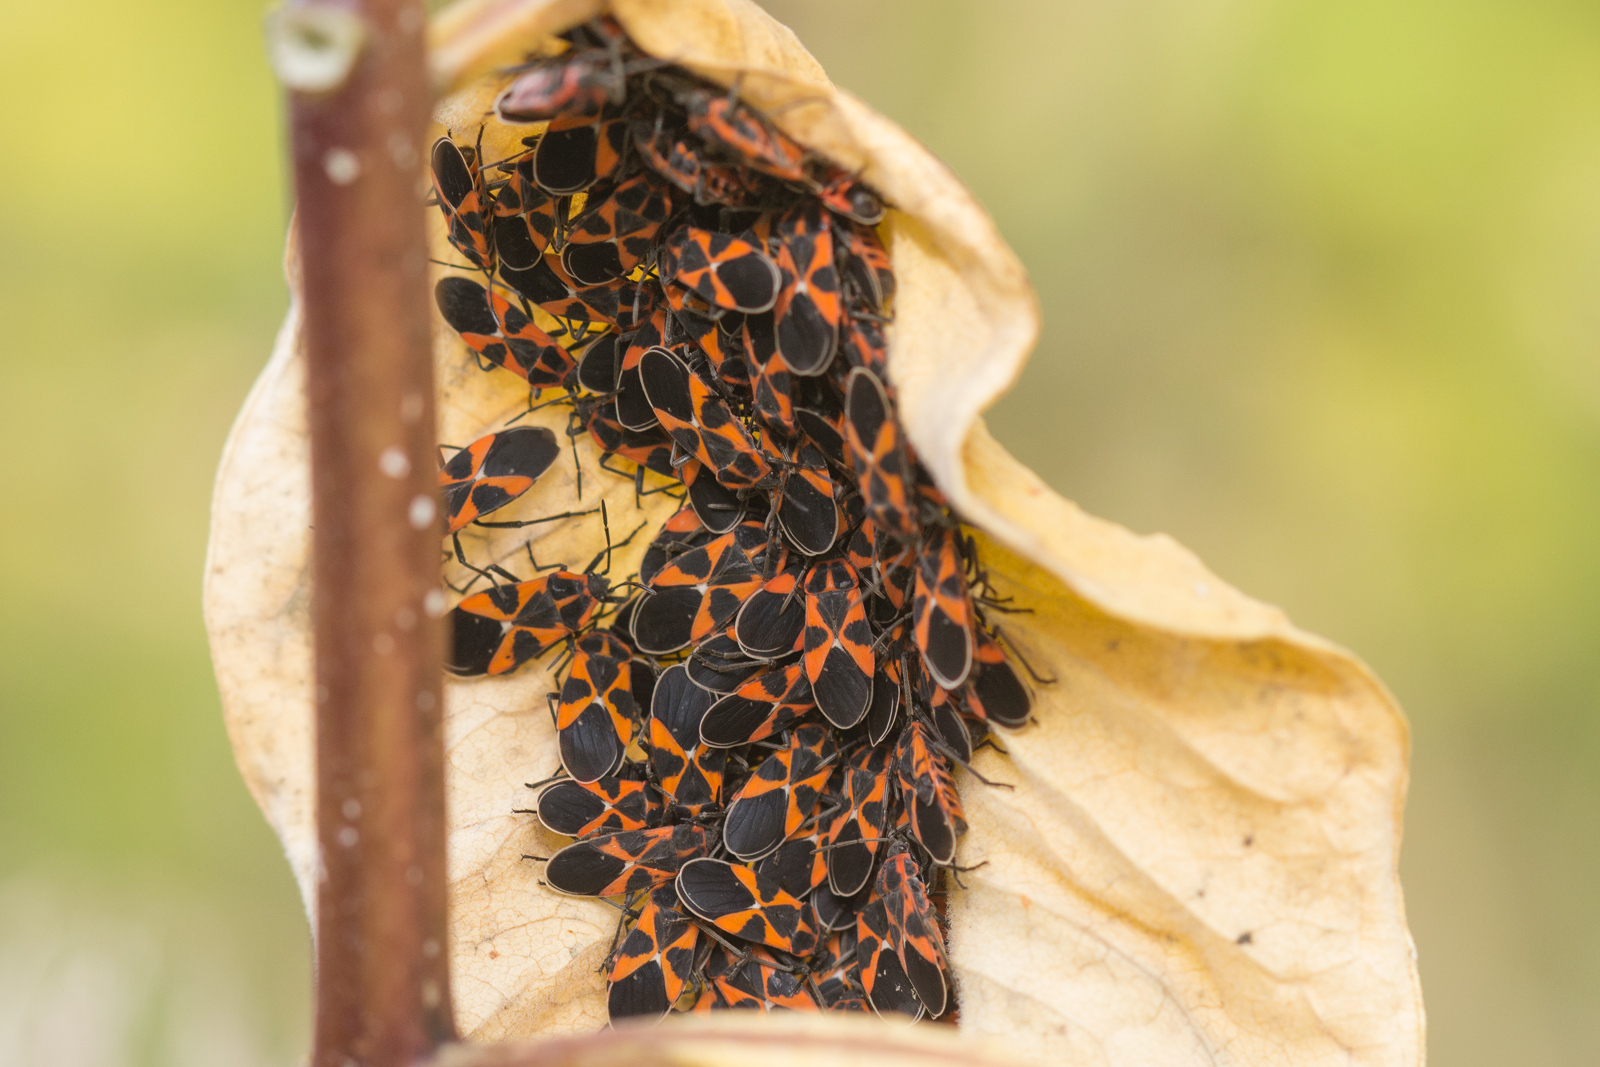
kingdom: Animalia
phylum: Arthropoda
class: Insecta
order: Hemiptera
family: Lygaeidae
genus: Tropidothorax
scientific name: Tropidothorax leucopterus
